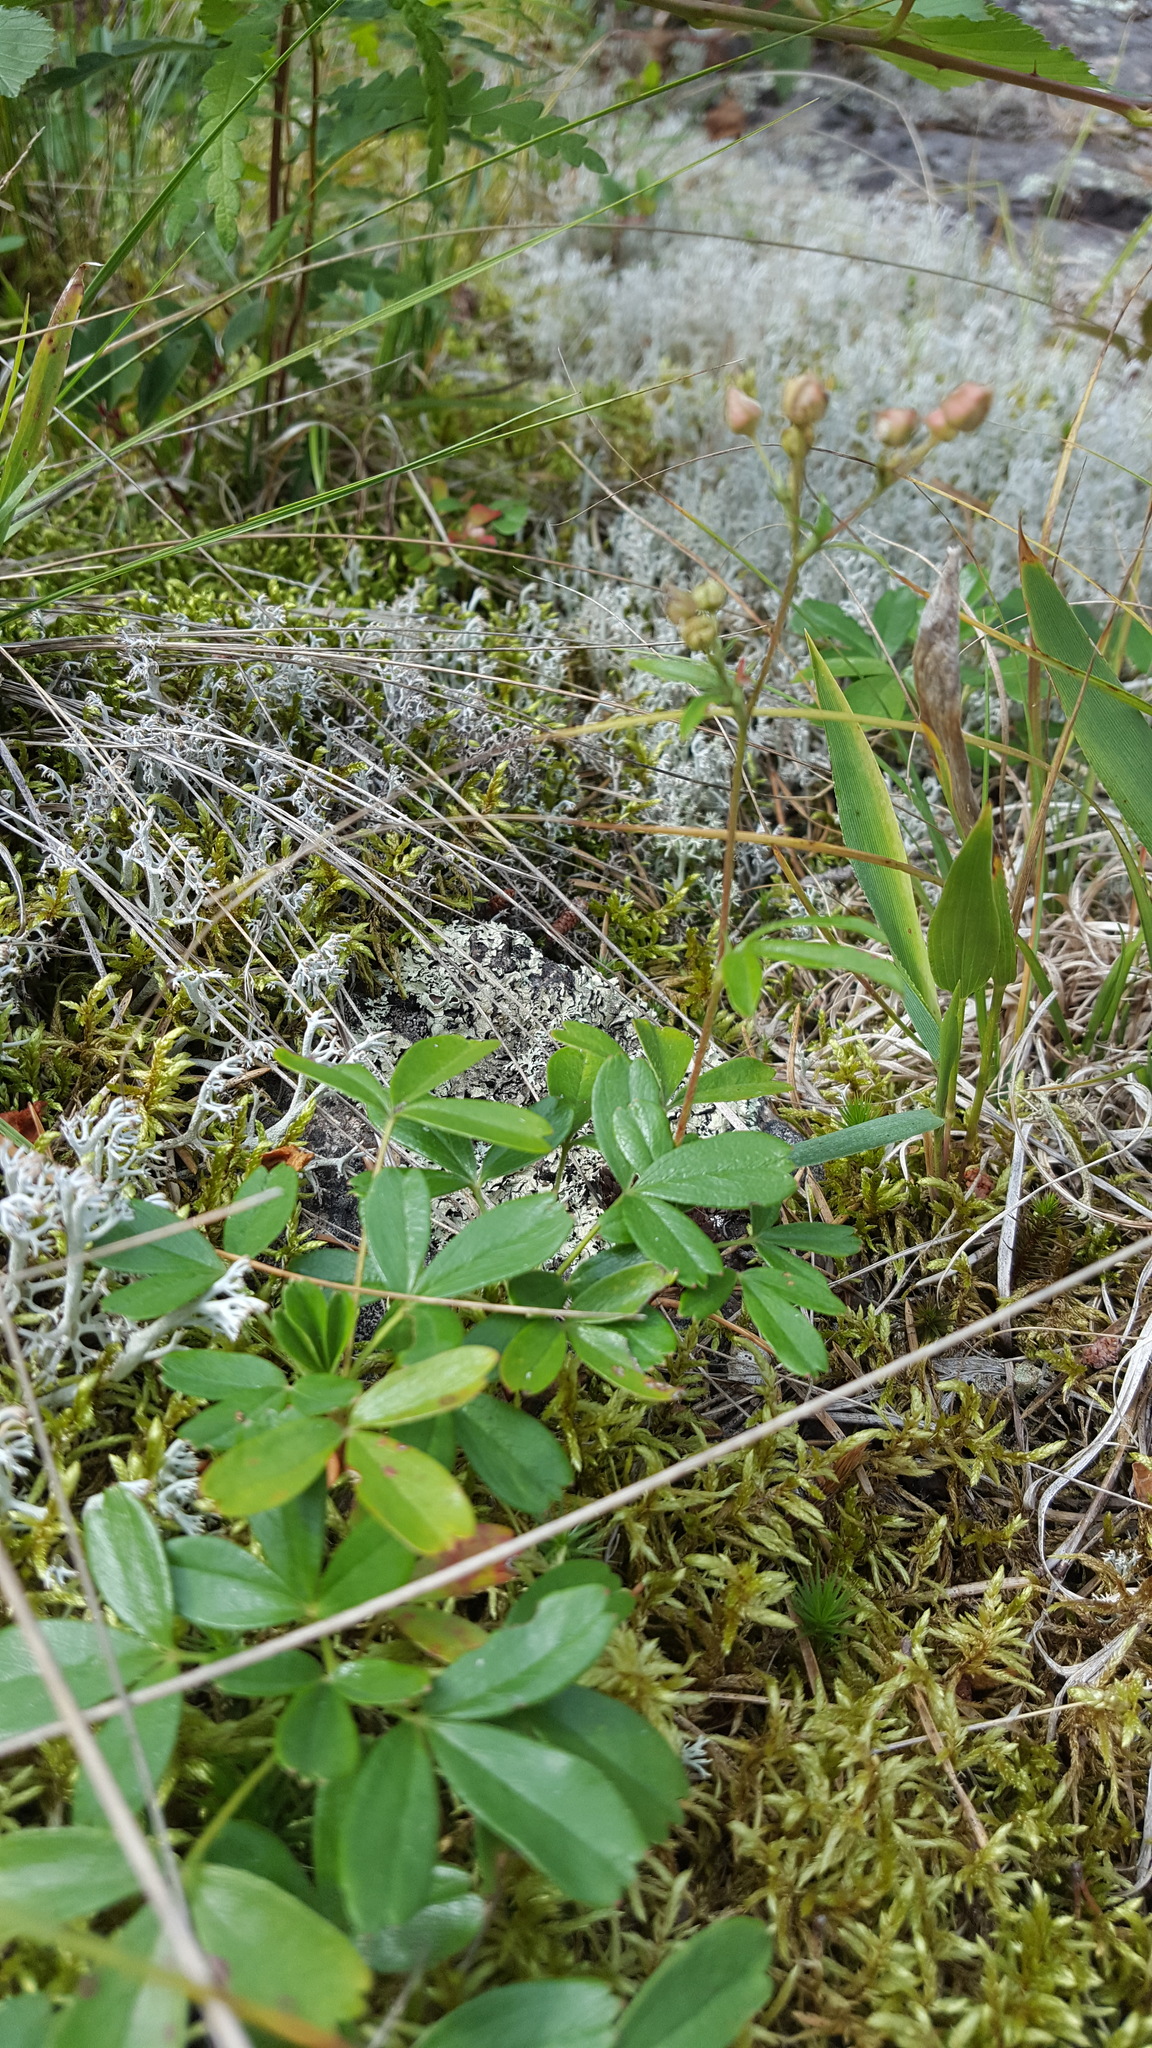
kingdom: Plantae
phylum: Tracheophyta
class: Magnoliopsida
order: Rosales
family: Rosaceae
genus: Sibbaldia
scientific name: Sibbaldia tridentata
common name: Three-toothed cinquefoil
